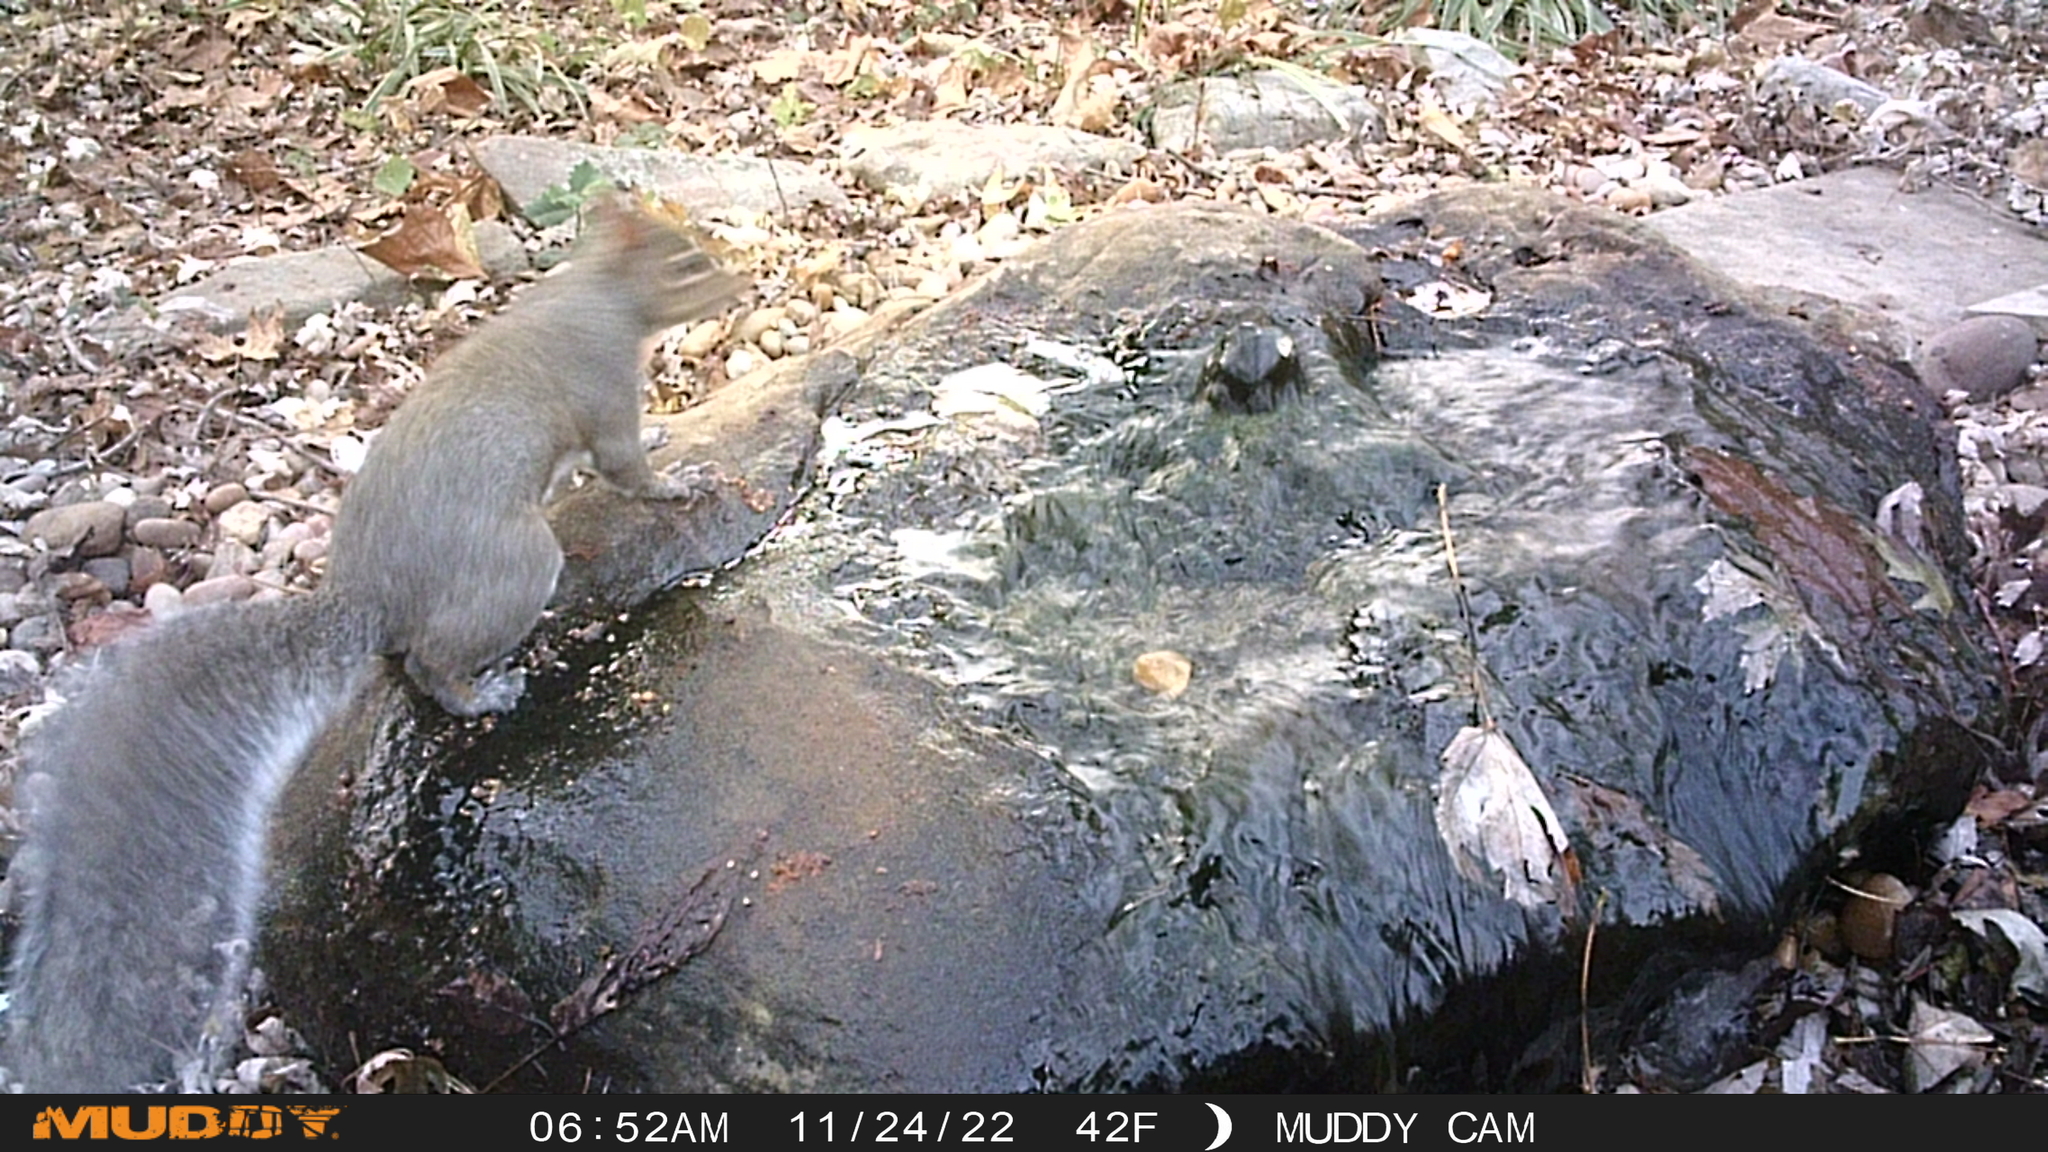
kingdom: Animalia
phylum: Chordata
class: Mammalia
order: Rodentia
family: Sciuridae
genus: Sciurus
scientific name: Sciurus carolinensis
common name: Eastern gray squirrel
